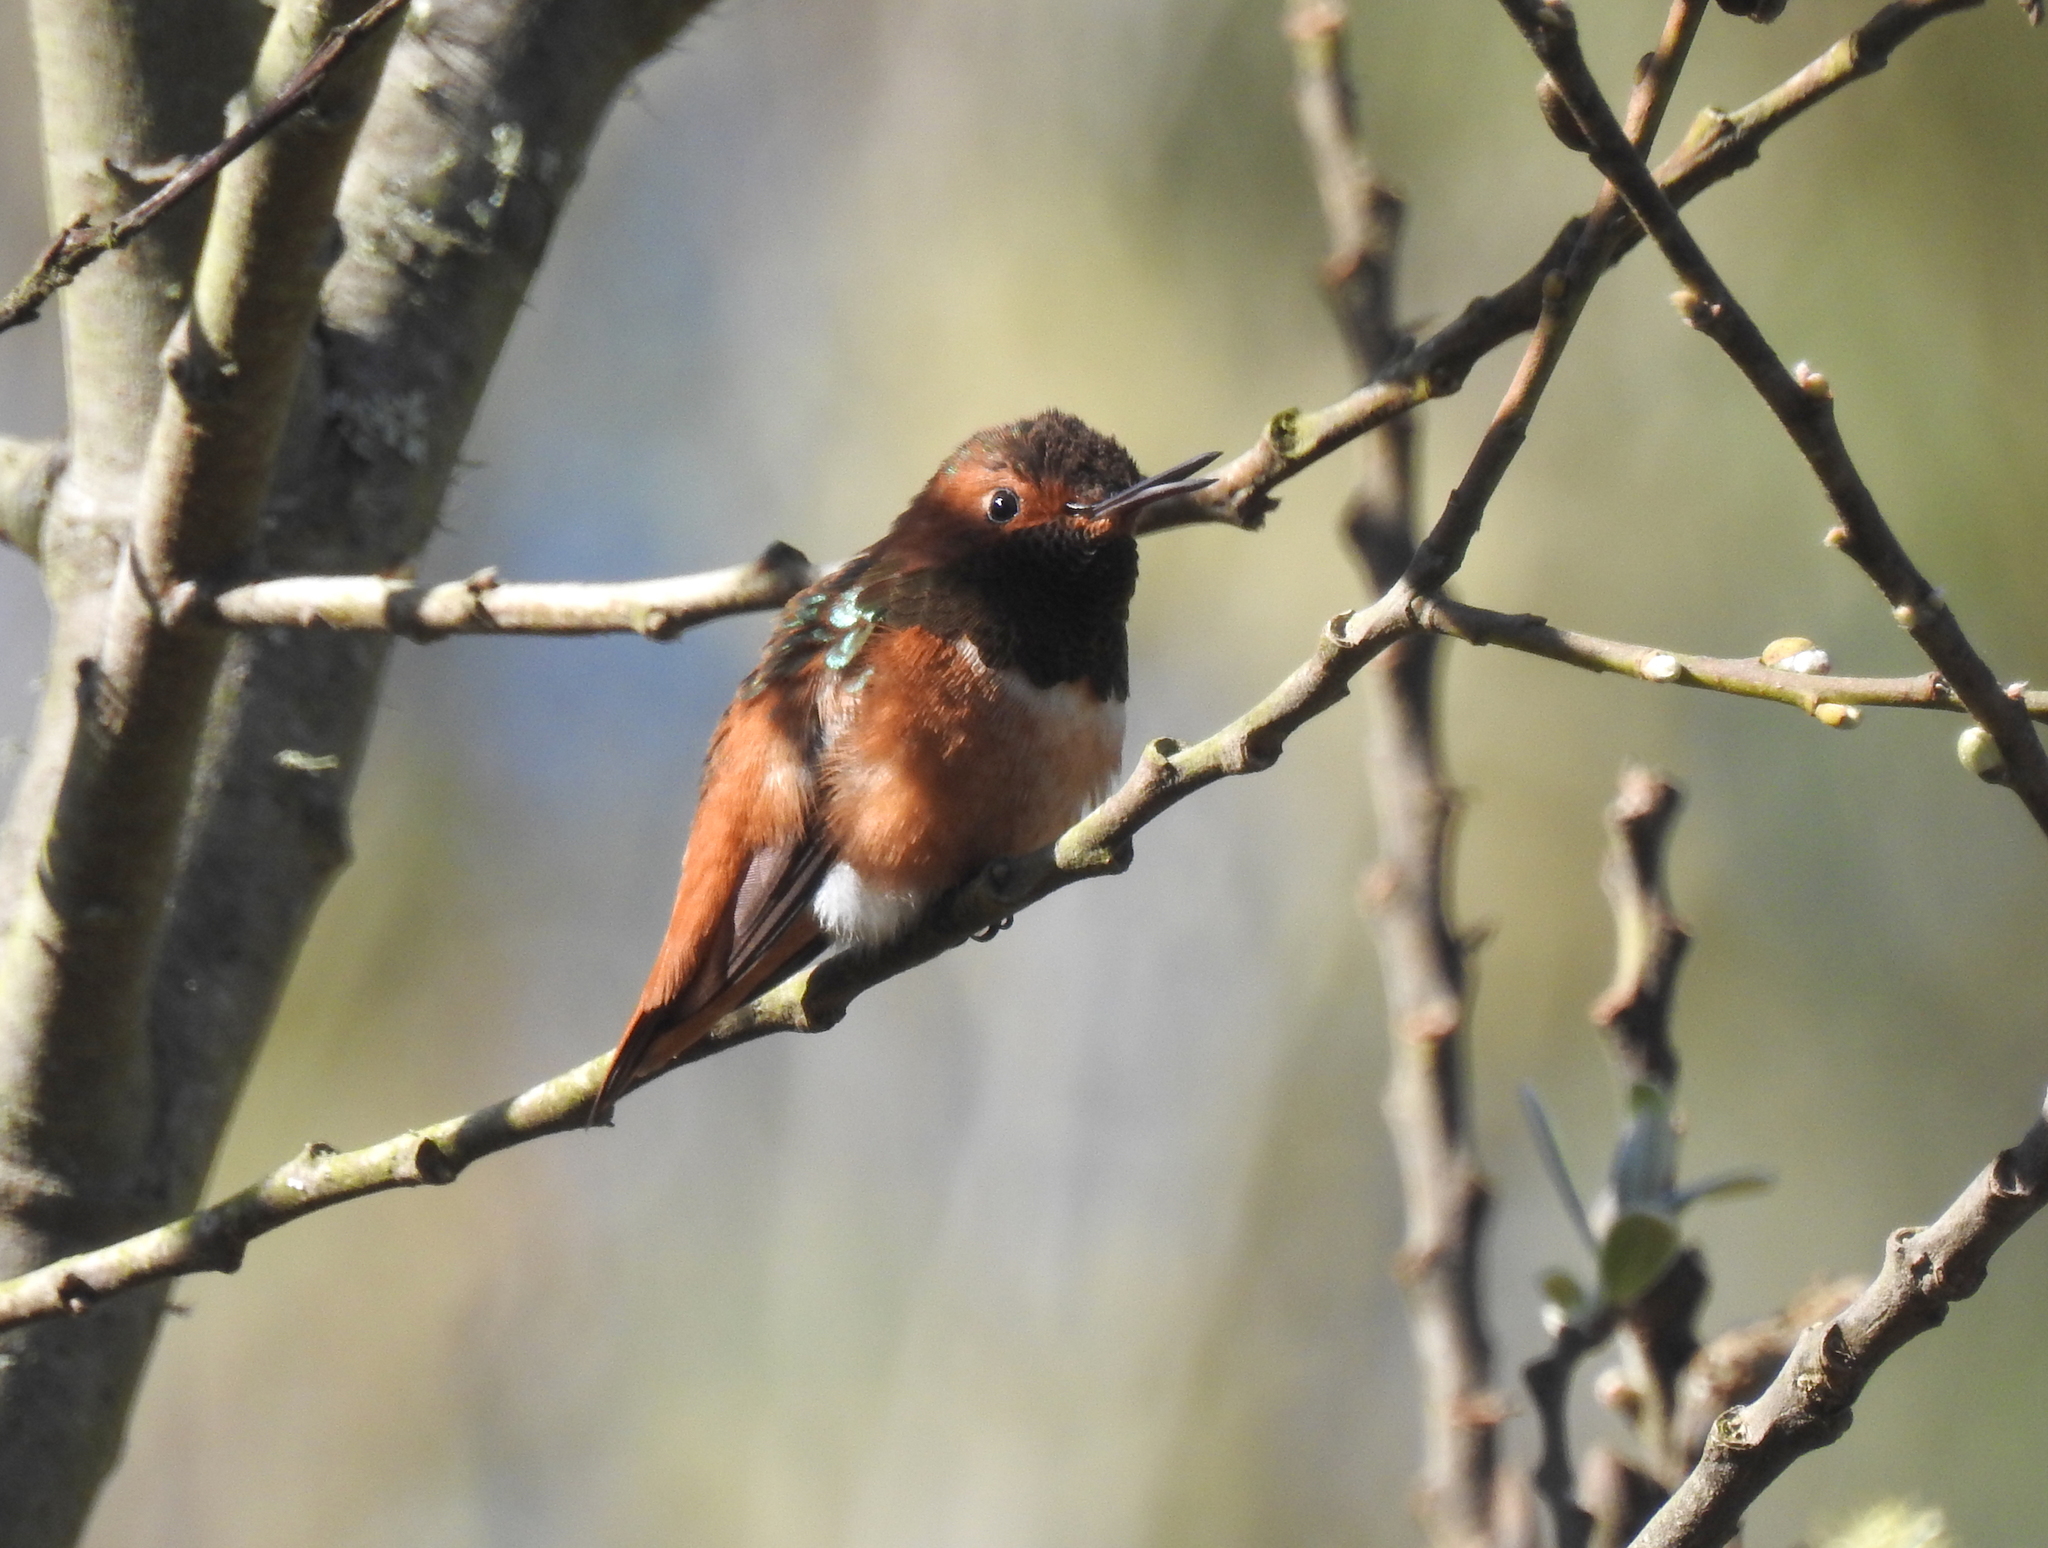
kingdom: Animalia
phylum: Chordata
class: Aves
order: Apodiformes
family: Trochilidae
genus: Selasphorus
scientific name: Selasphorus sasin
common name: Allen's hummingbird
